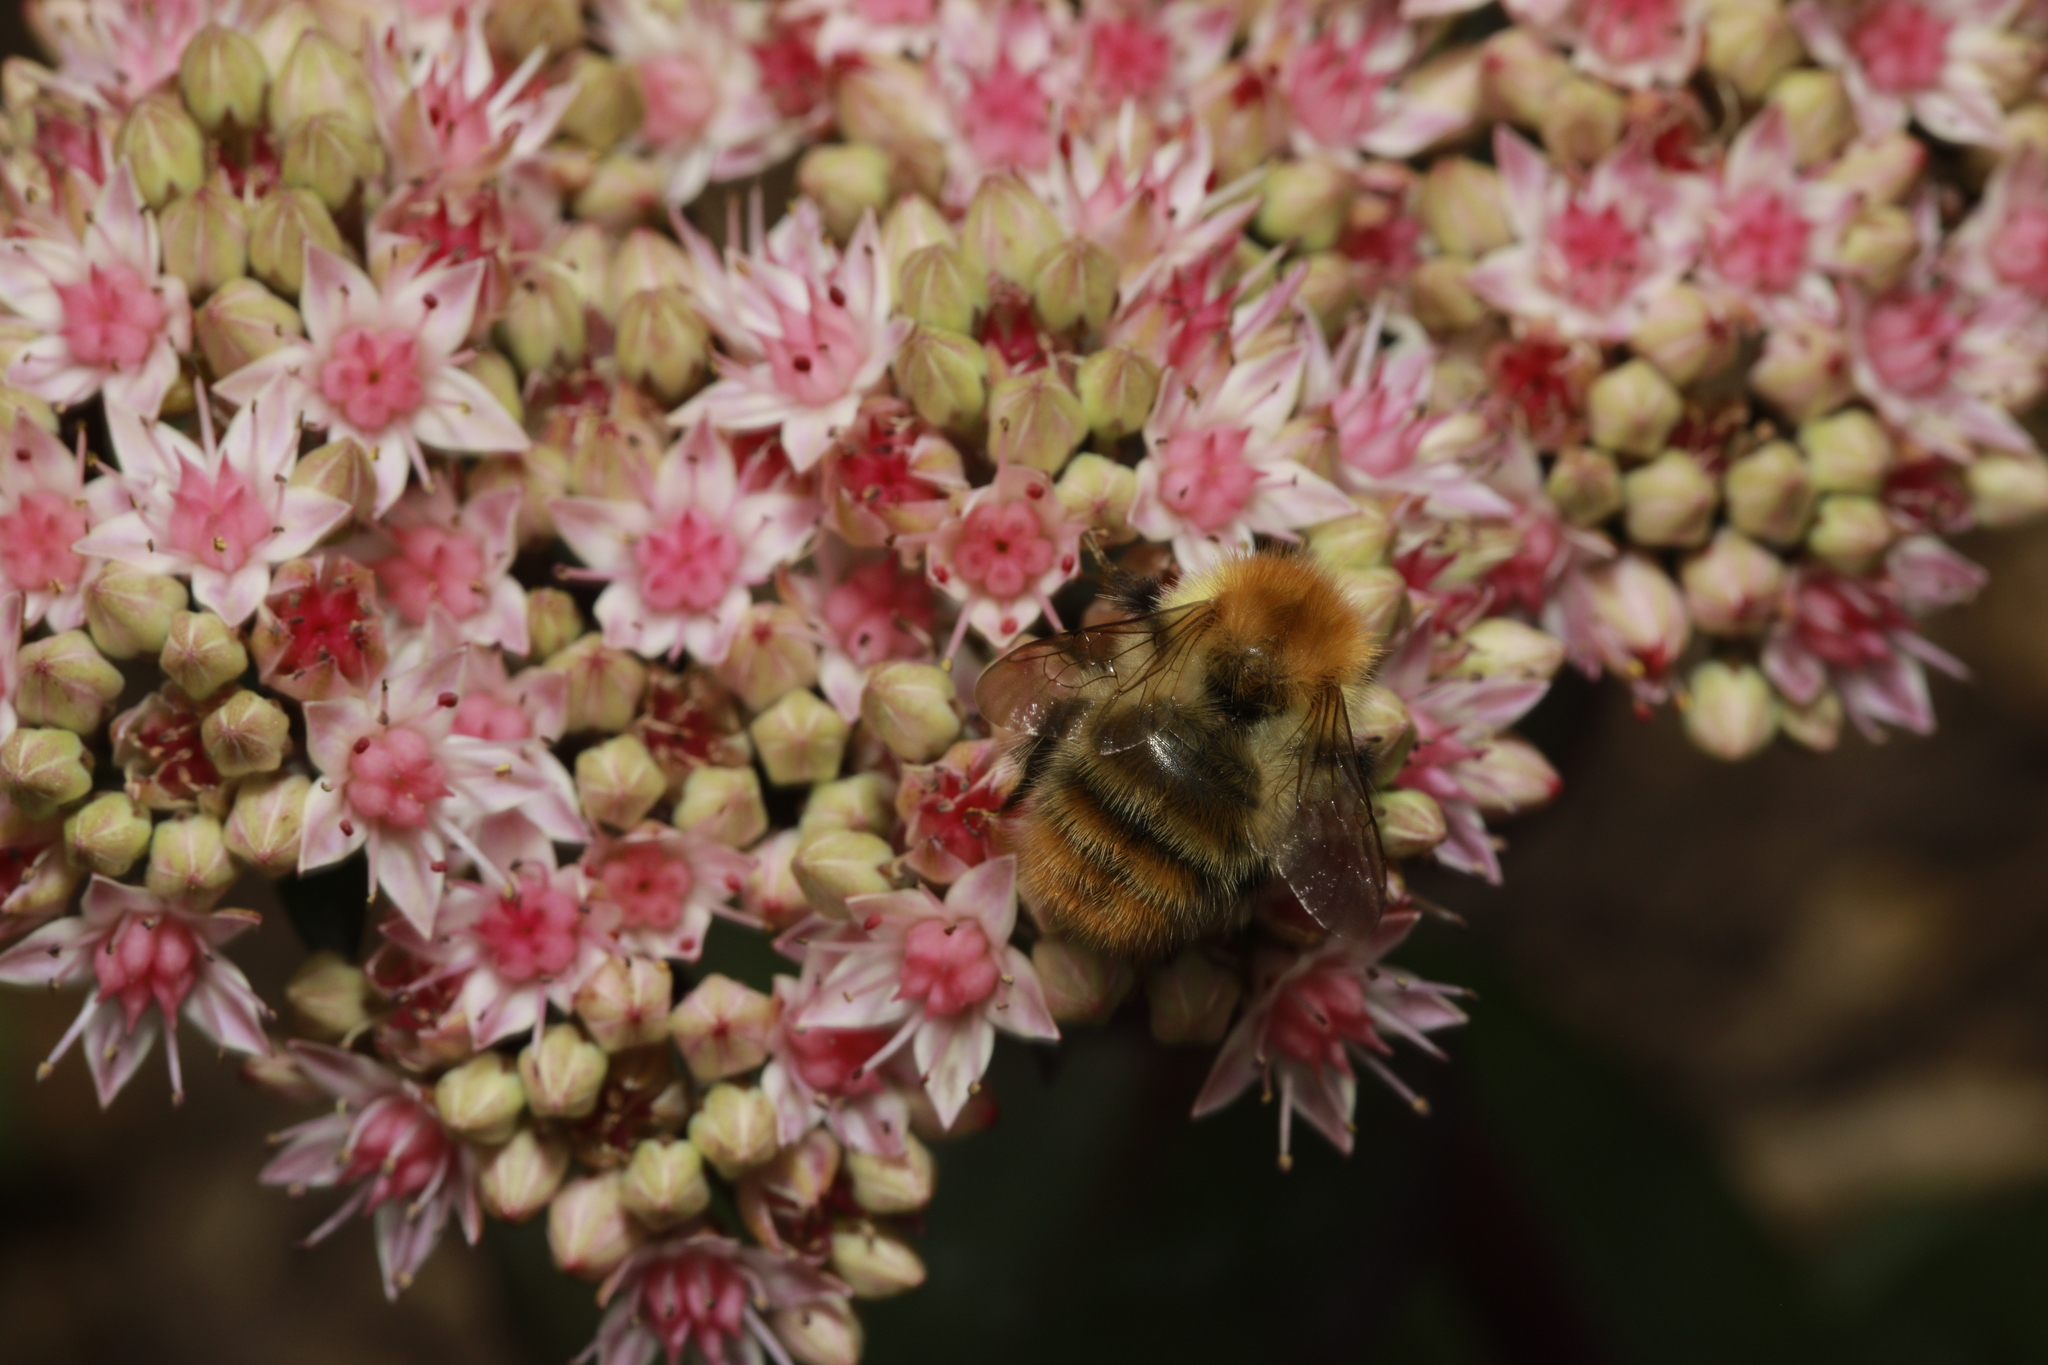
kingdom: Animalia
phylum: Arthropoda
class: Insecta
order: Hymenoptera
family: Apidae
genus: Bombus
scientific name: Bombus pascuorum
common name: Common carder bee
